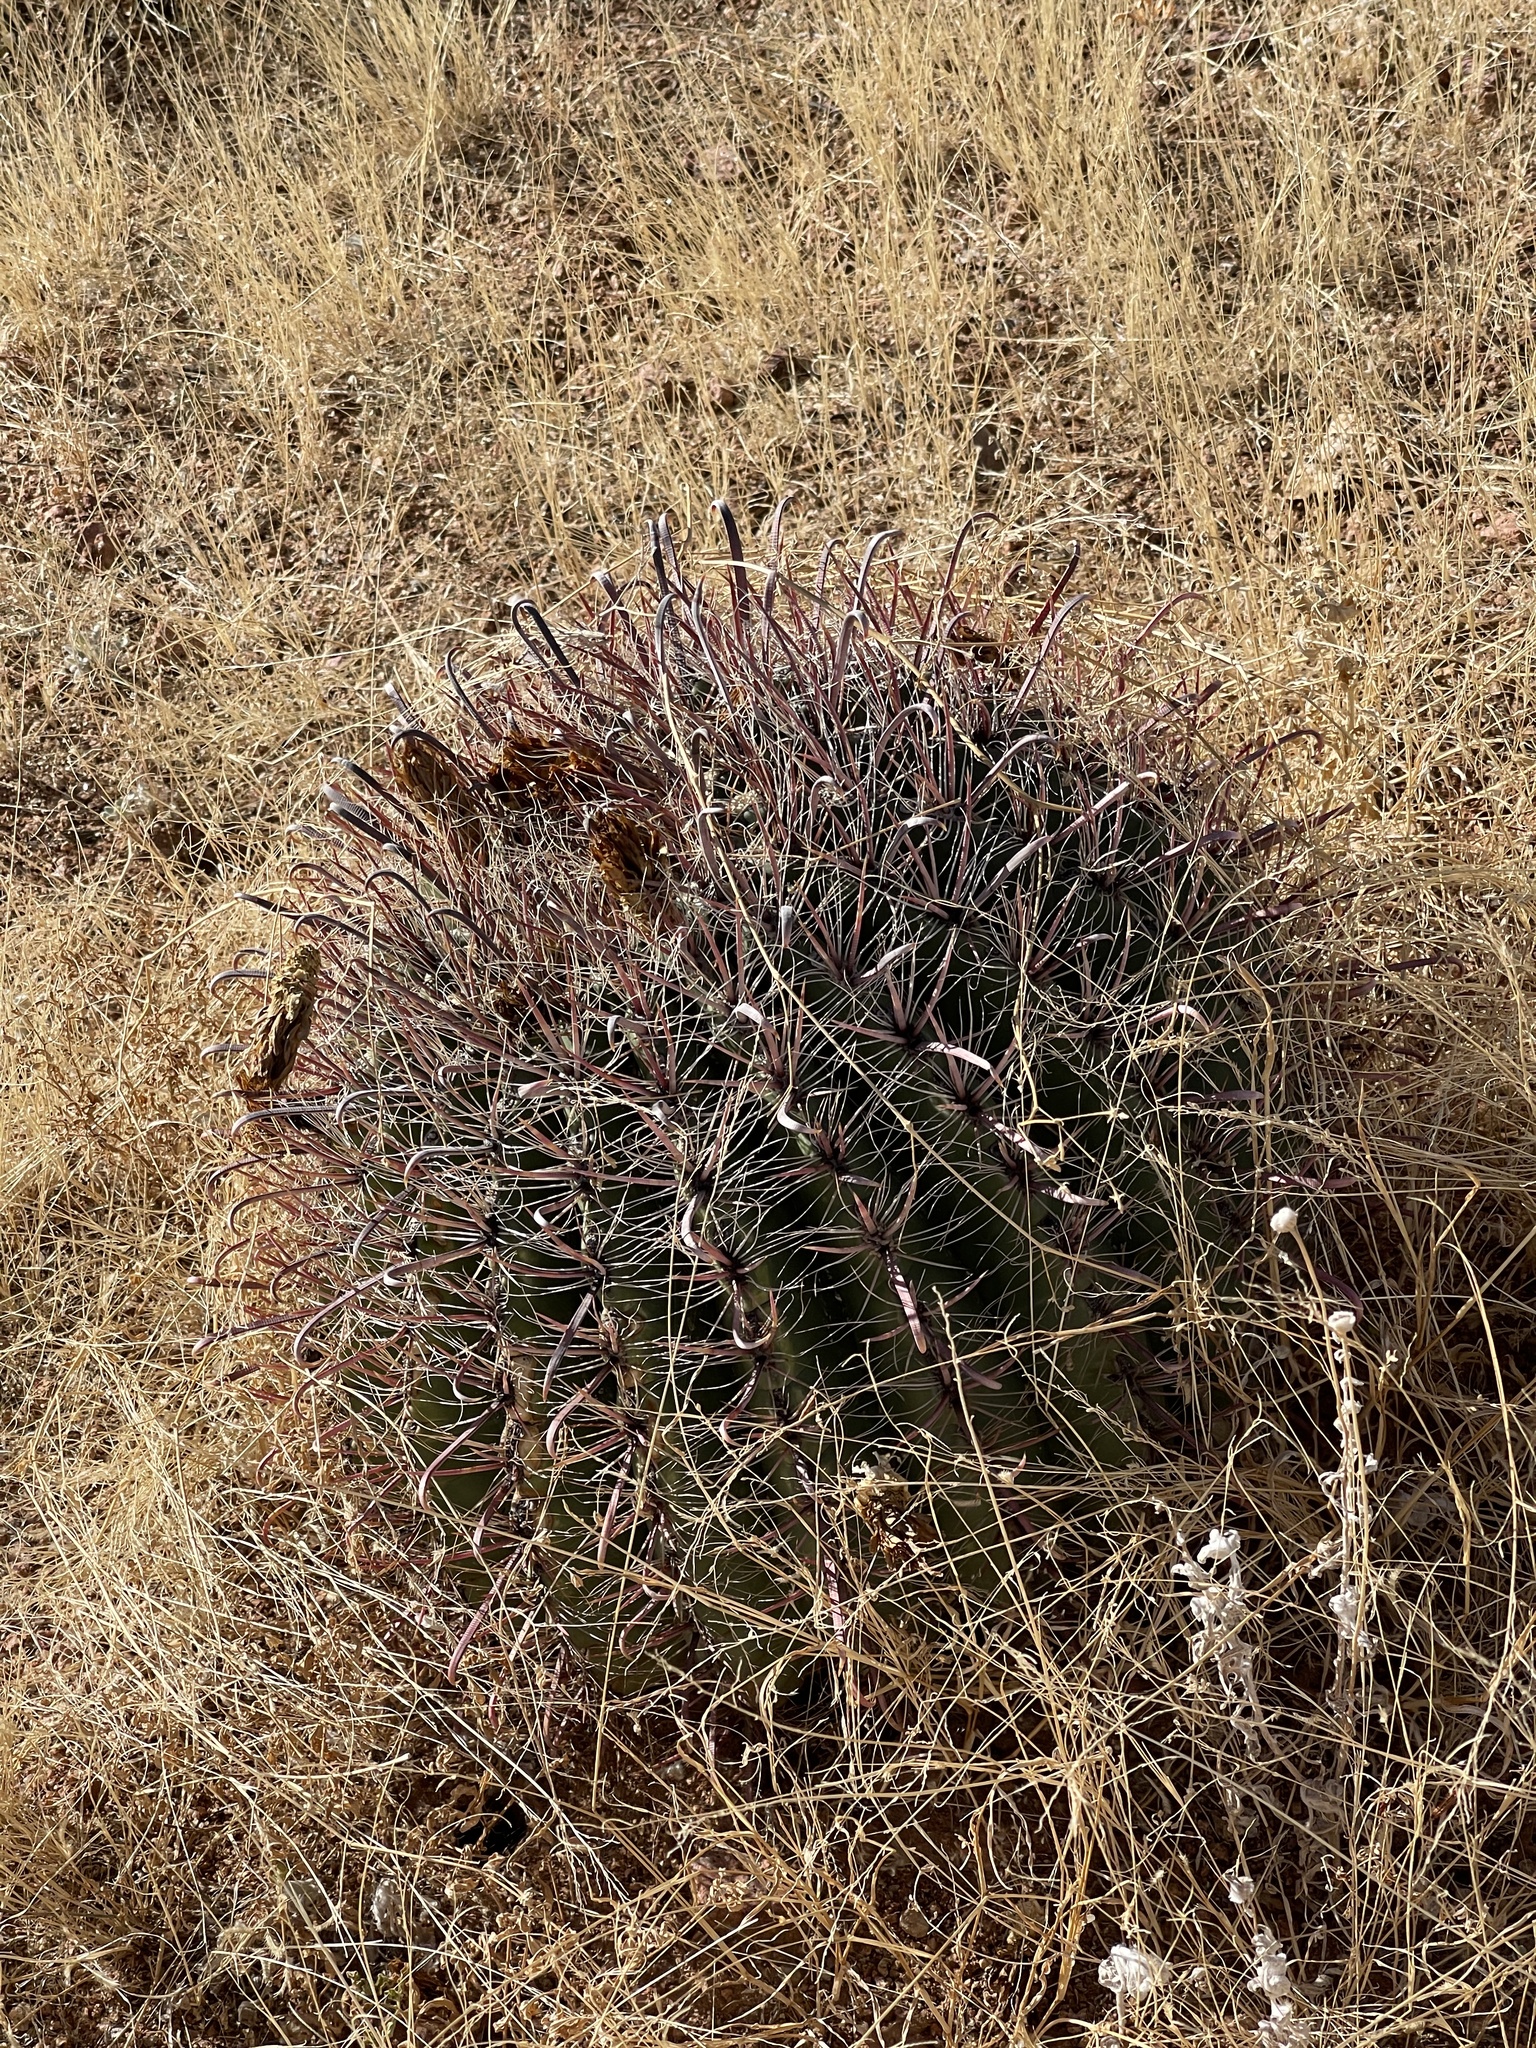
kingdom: Plantae
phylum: Tracheophyta
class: Magnoliopsida
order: Caryophyllales
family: Cactaceae
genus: Ferocactus
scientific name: Ferocactus wislizeni
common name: Candy barrel cactus
